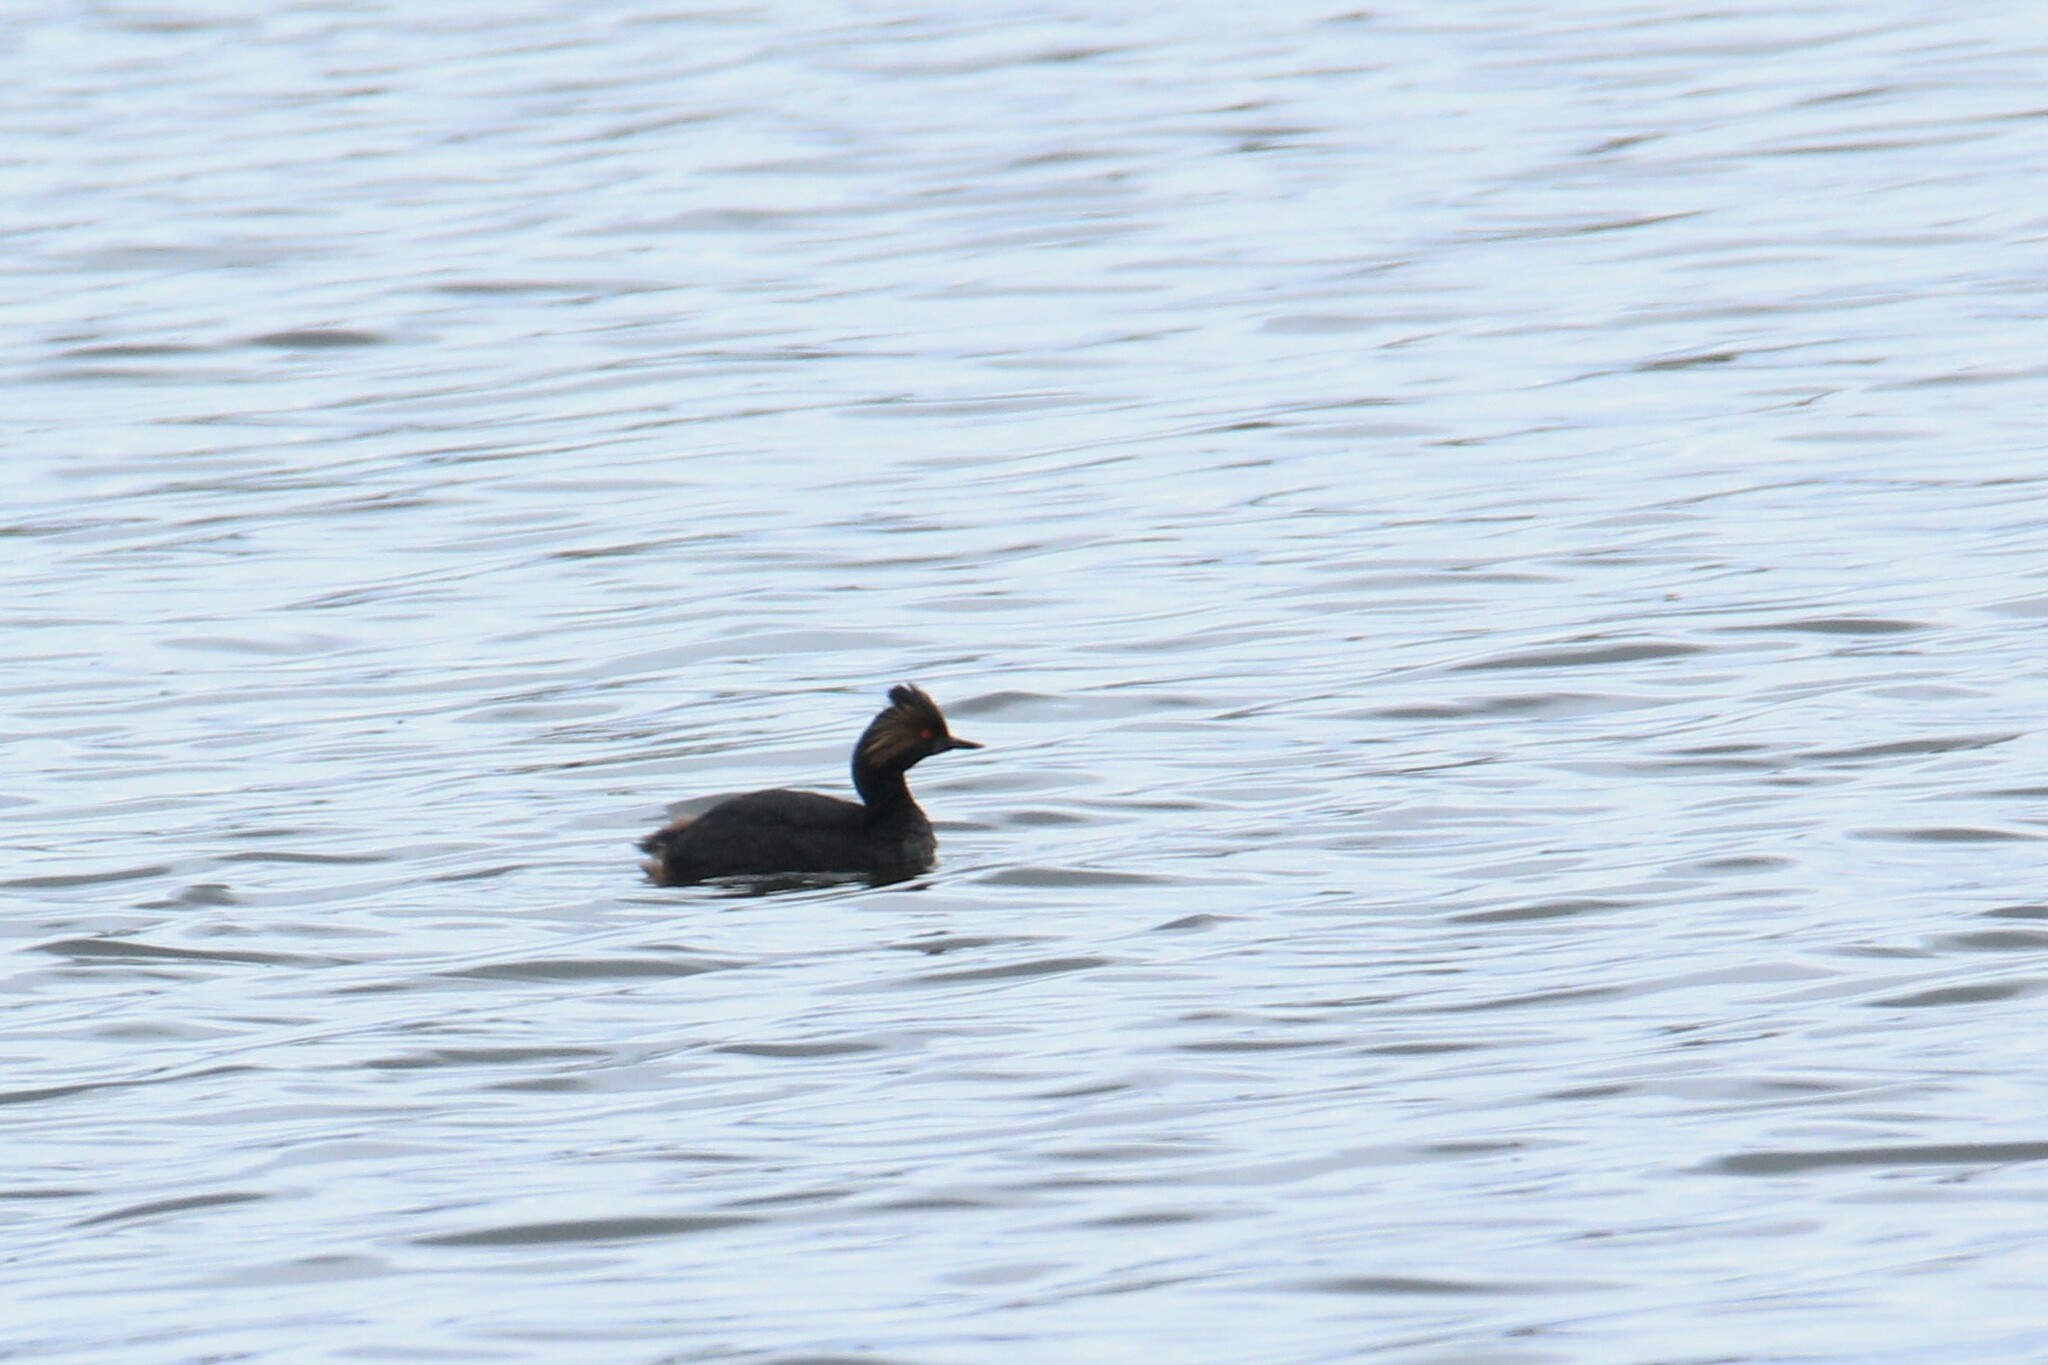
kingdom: Animalia
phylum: Chordata
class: Aves
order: Podicipediformes
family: Podicipedidae
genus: Podiceps
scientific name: Podiceps nigricollis
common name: Black-necked grebe
